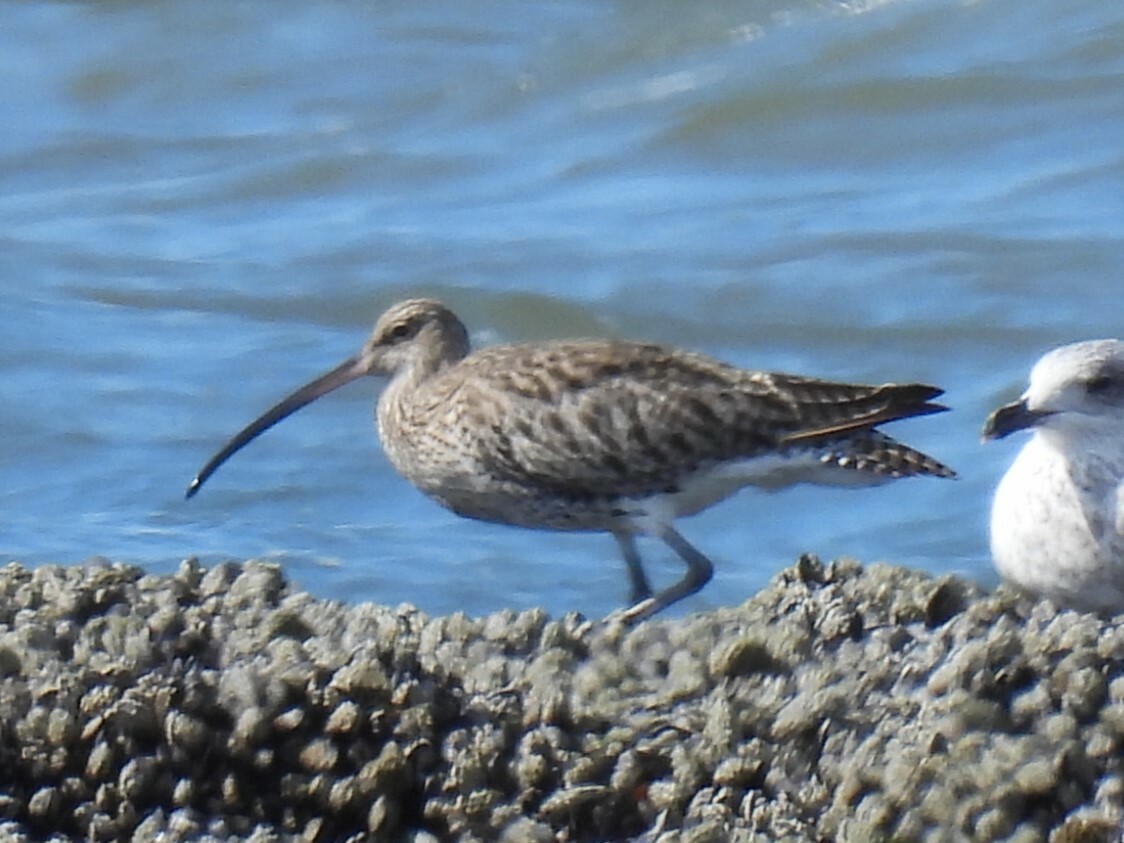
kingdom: Animalia
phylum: Chordata
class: Aves
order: Charadriiformes
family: Scolopacidae
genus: Numenius
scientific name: Numenius arquata
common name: Eurasian curlew
